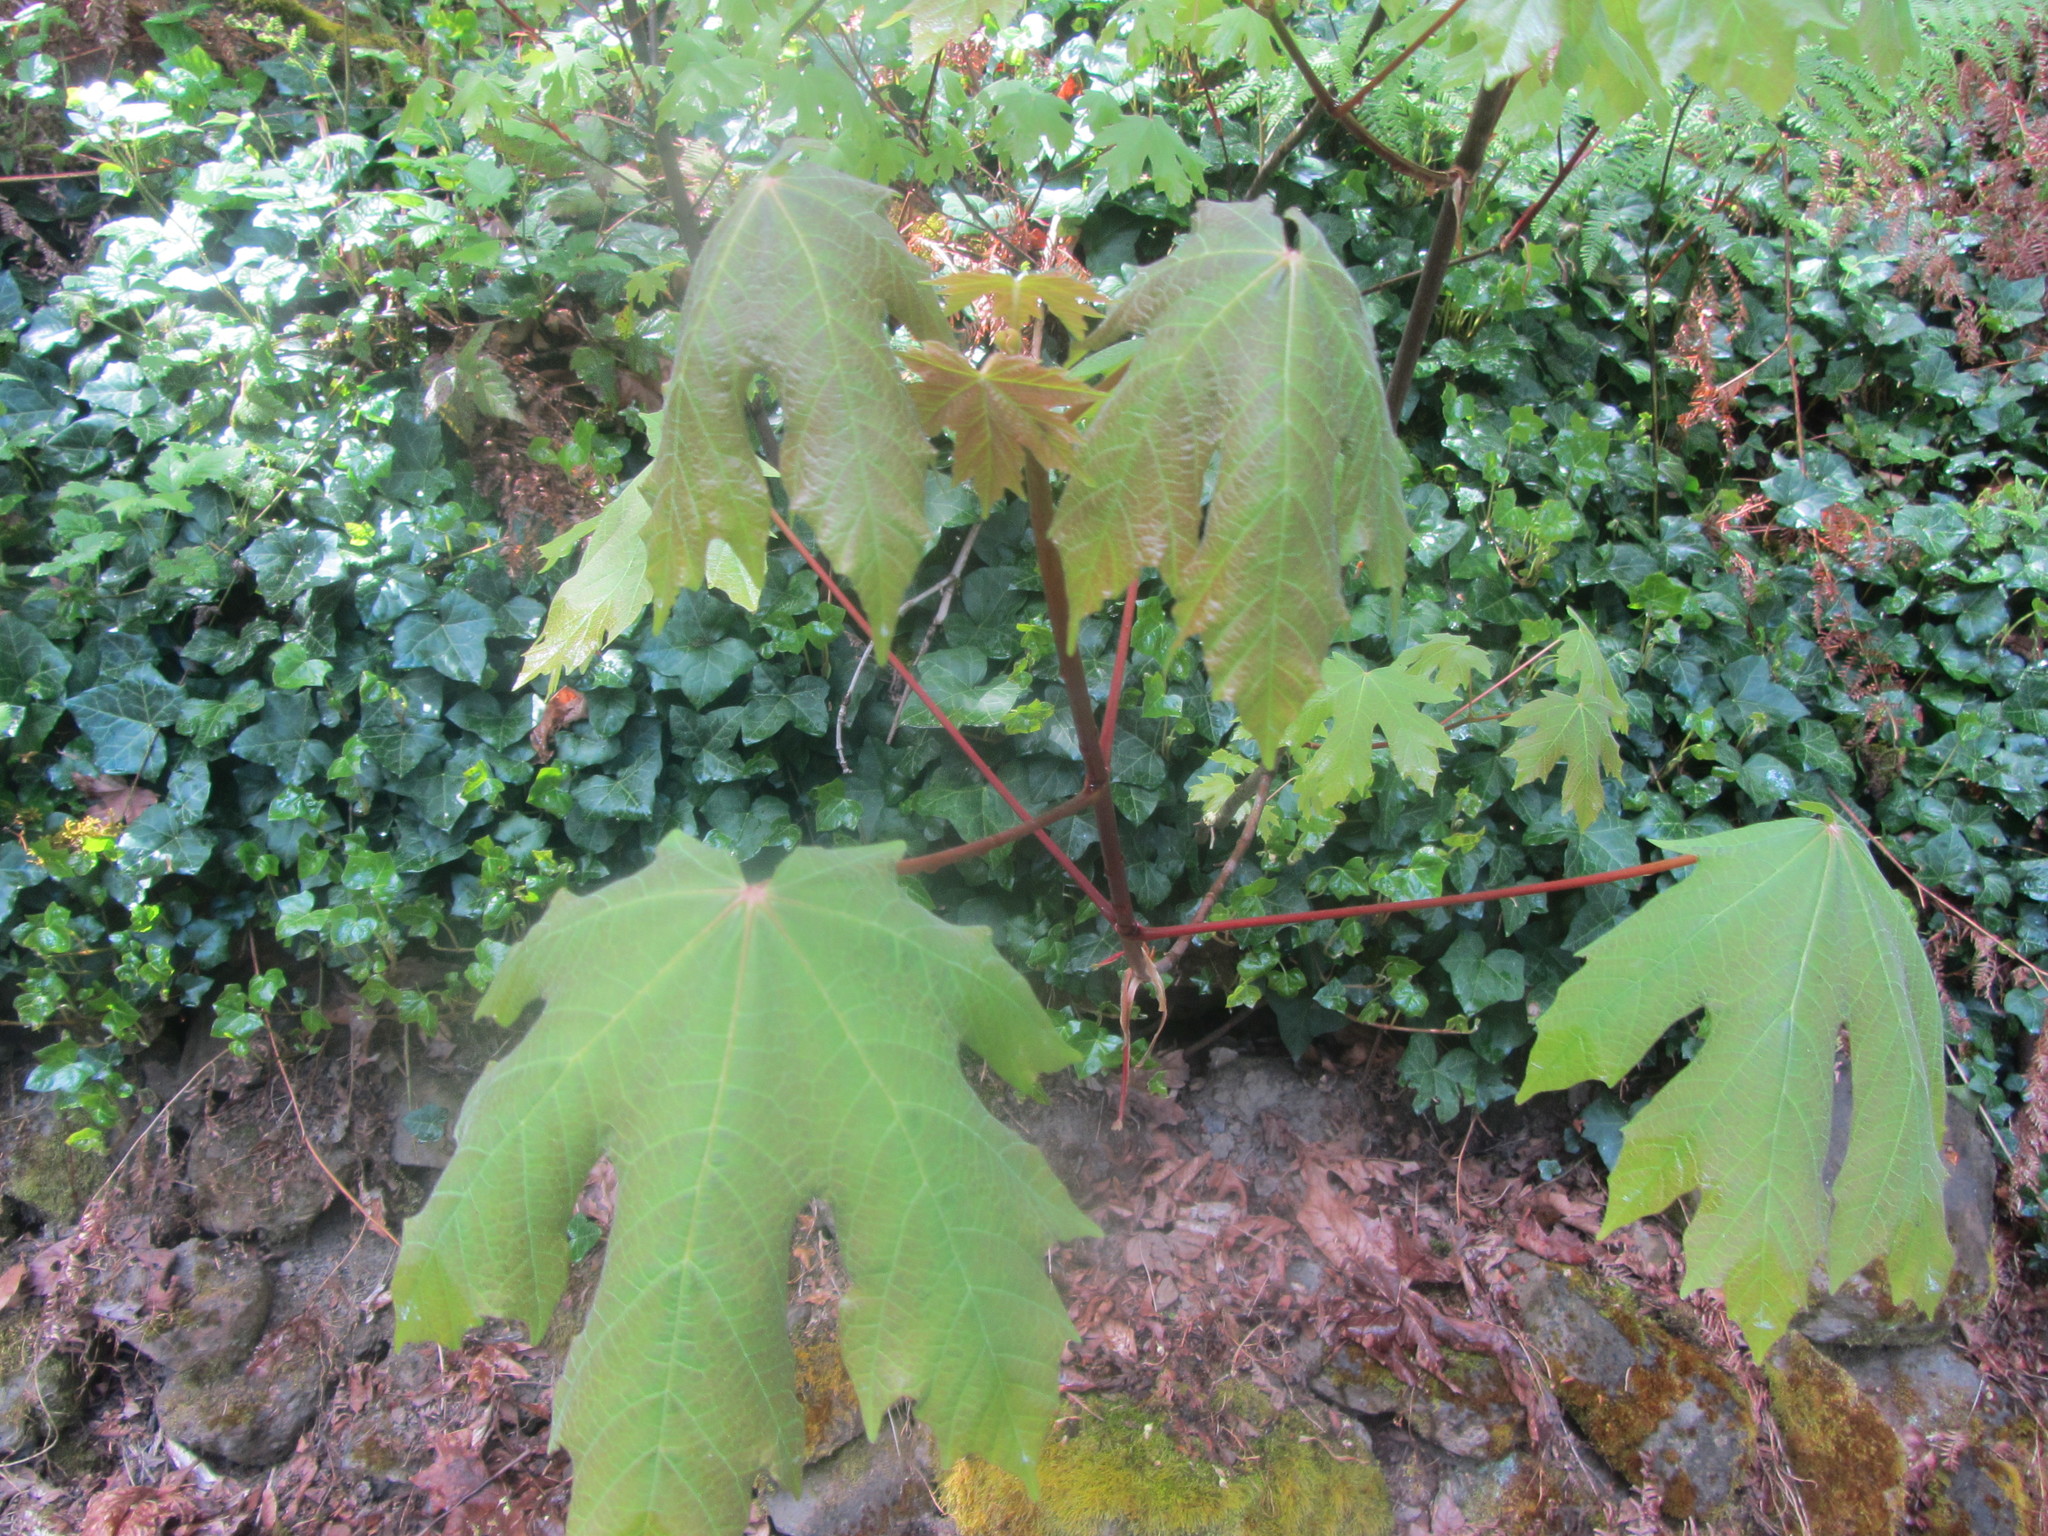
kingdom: Plantae
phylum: Tracheophyta
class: Magnoliopsida
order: Sapindales
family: Sapindaceae
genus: Acer
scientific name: Acer macrophyllum
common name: Oregon maple
